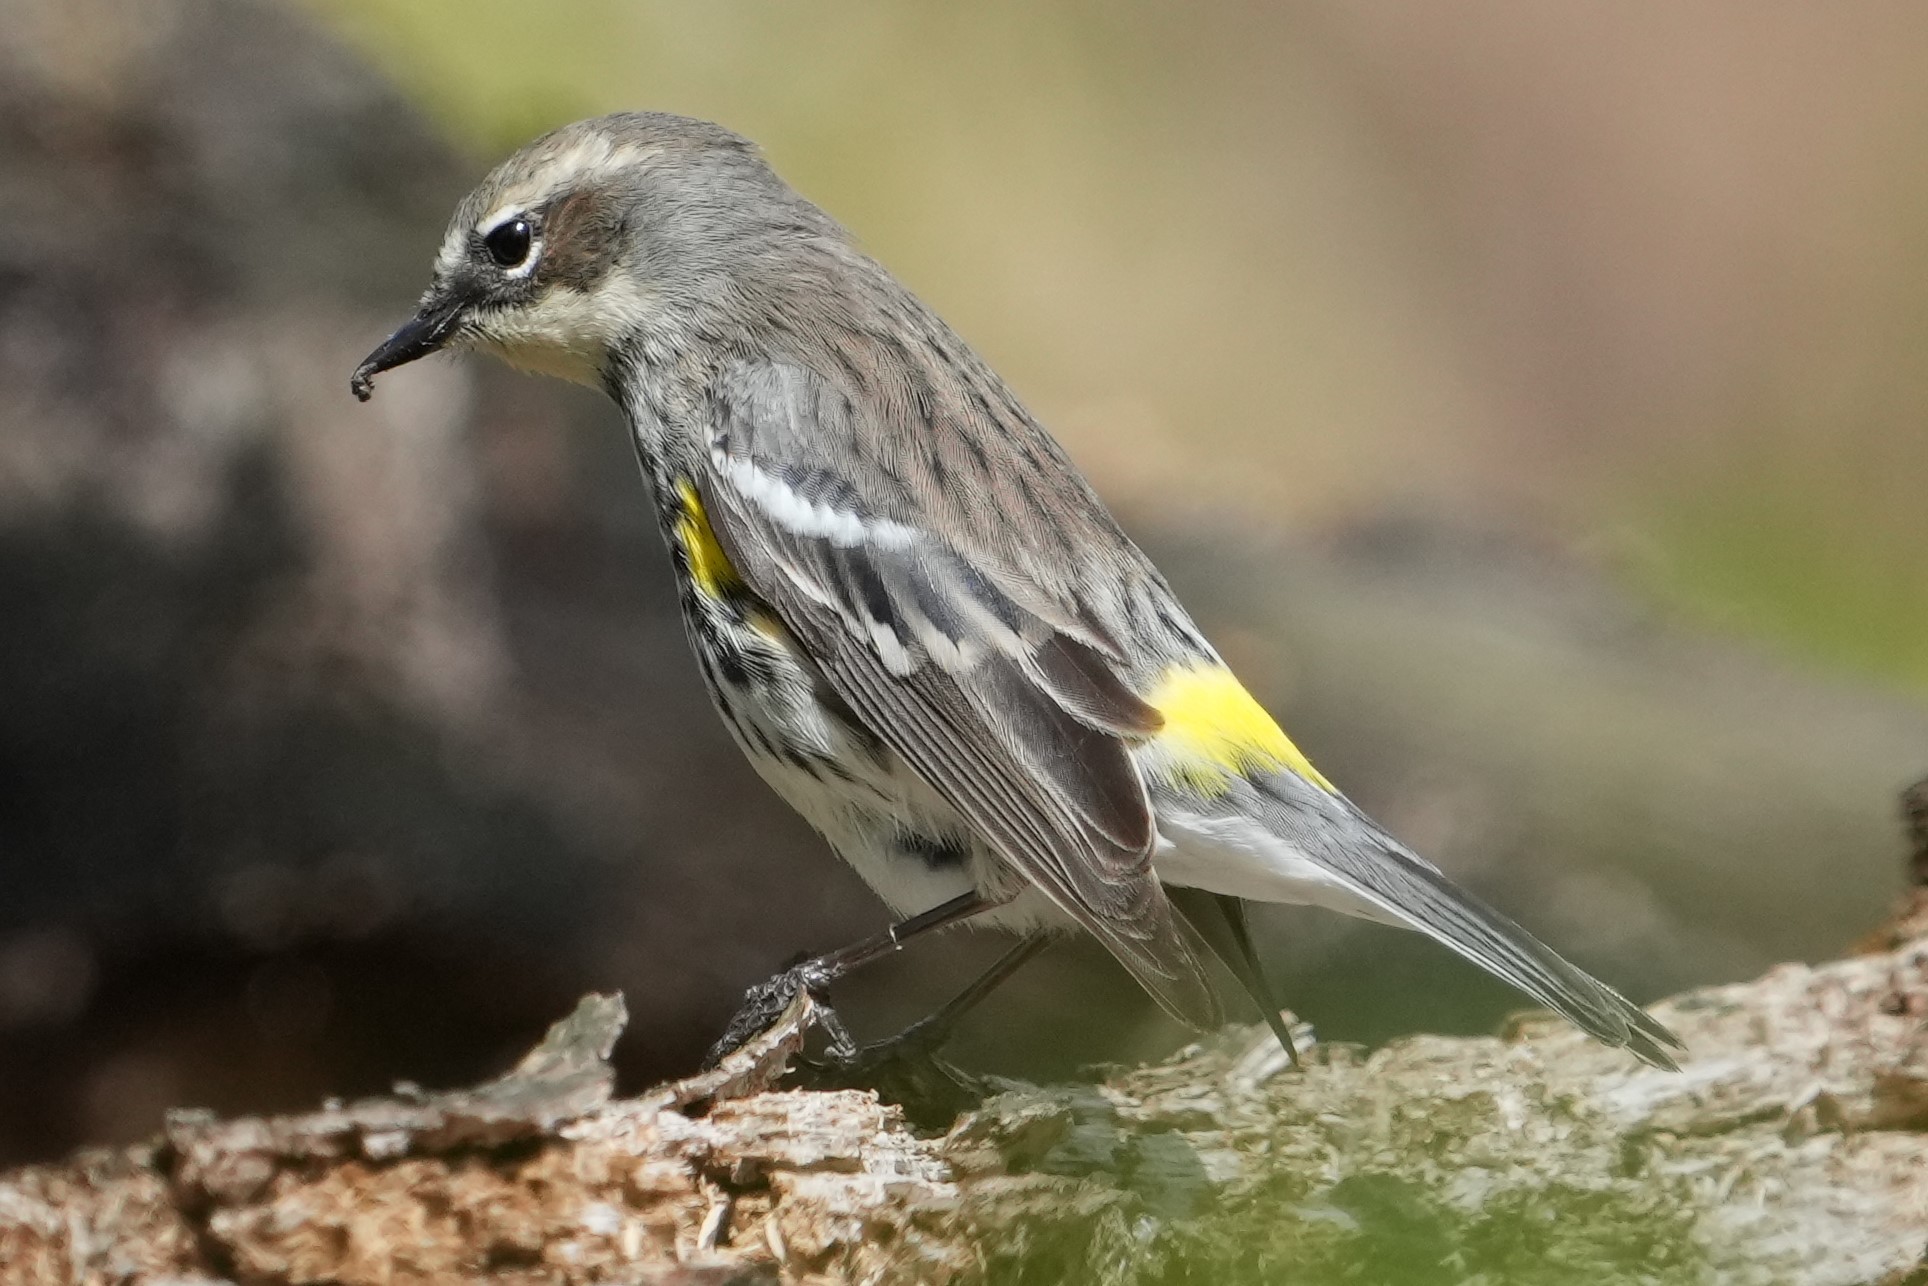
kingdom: Animalia
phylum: Chordata
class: Aves
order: Passeriformes
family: Parulidae
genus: Setophaga
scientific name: Setophaga coronata
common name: Myrtle warbler
